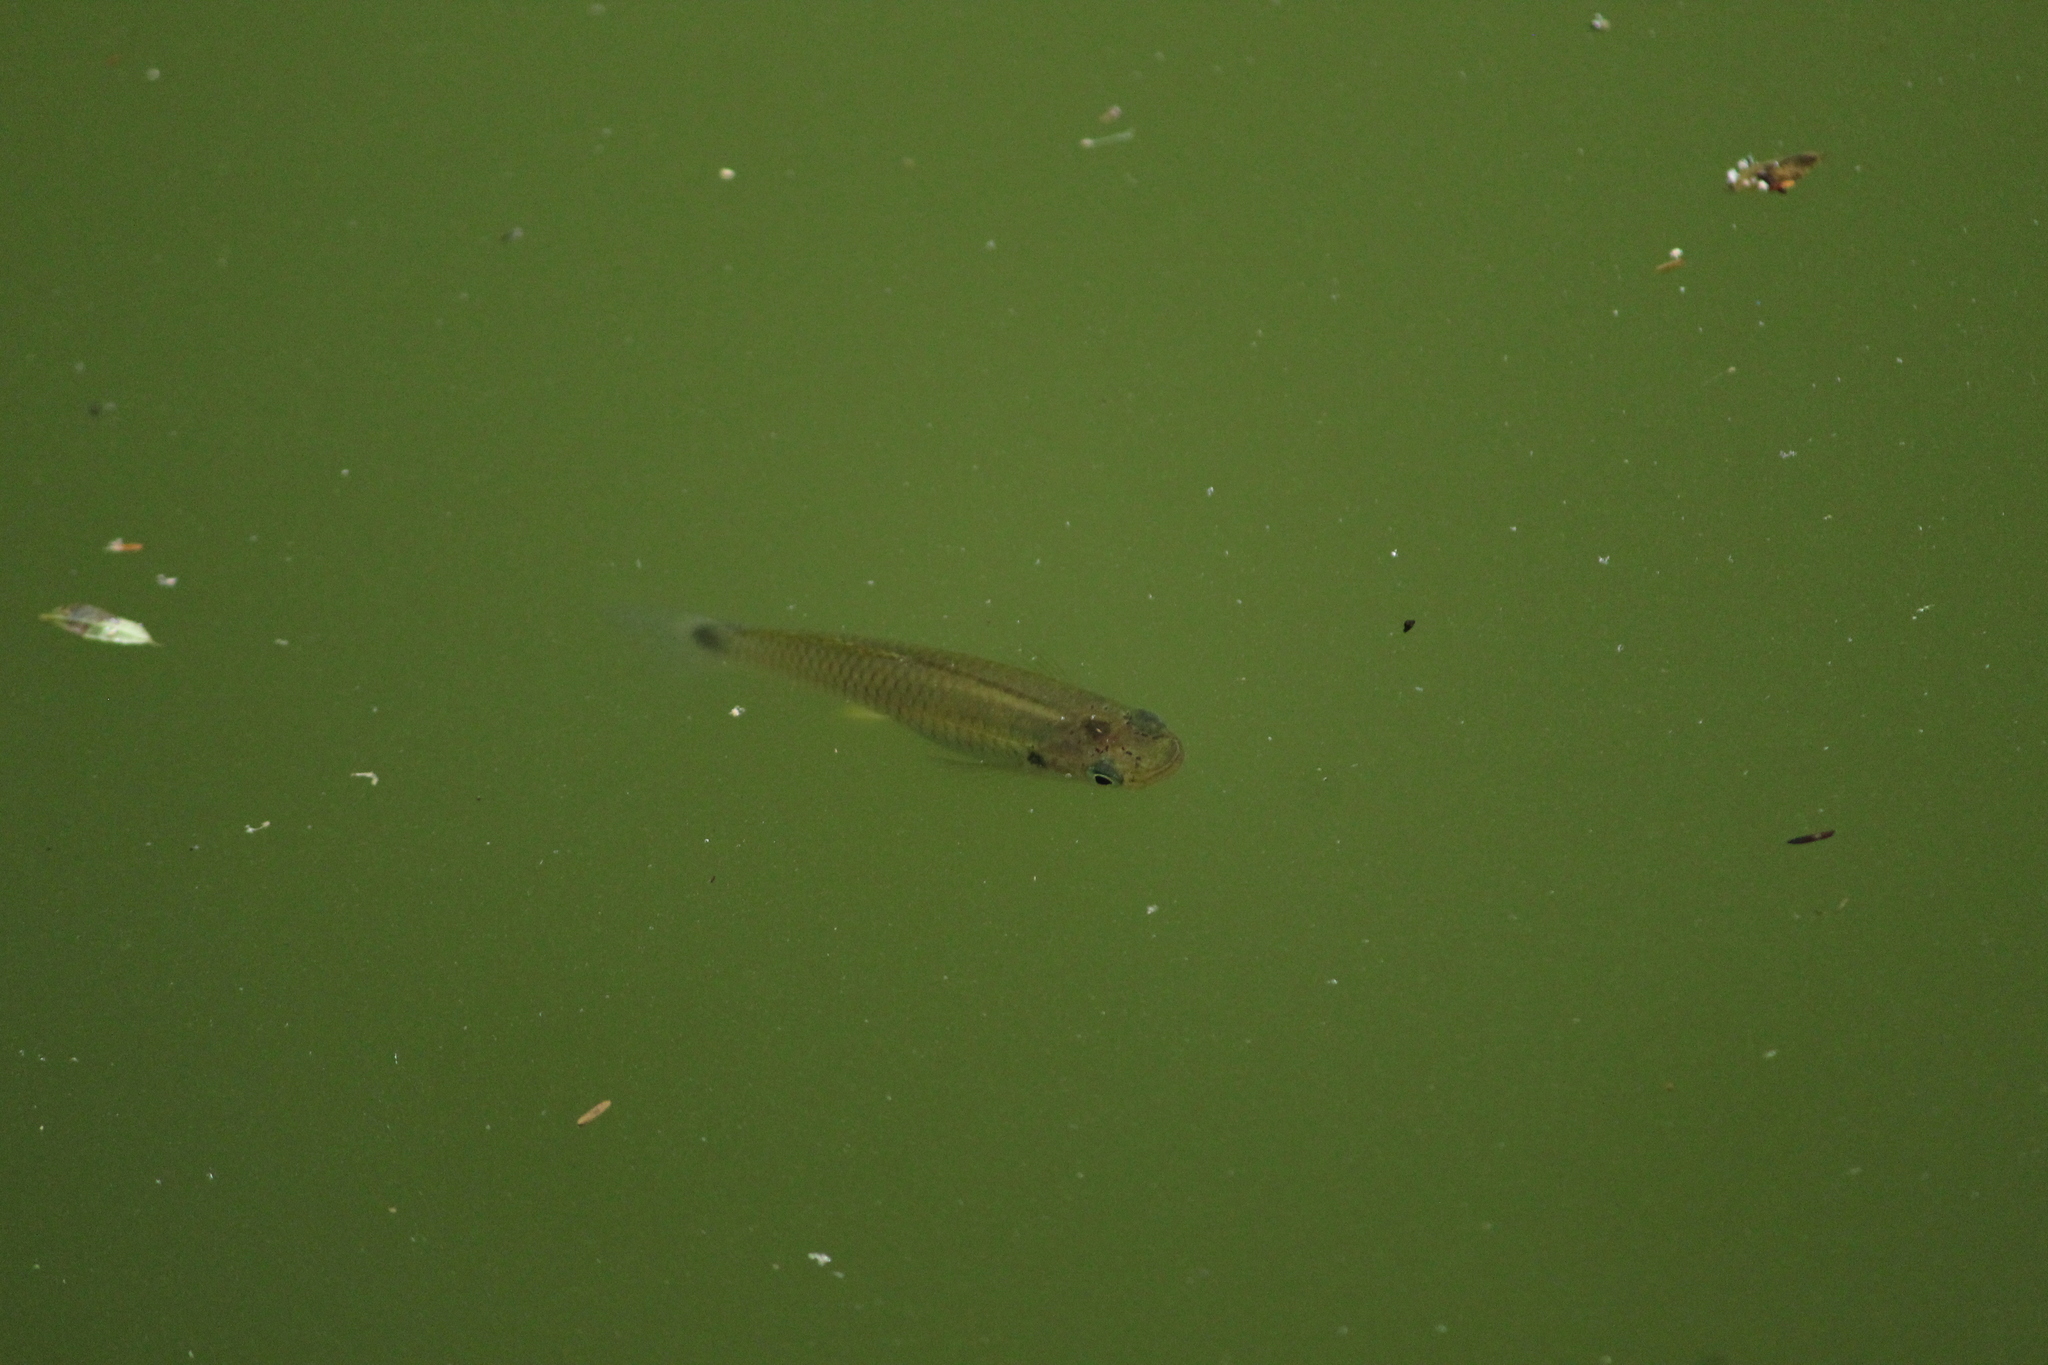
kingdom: Animalia
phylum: Chordata
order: Cyprinodontiformes
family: Poeciliidae
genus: Pseudoxiphophorus
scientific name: Pseudoxiphophorus bimaculatus
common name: Twospot livebearer
